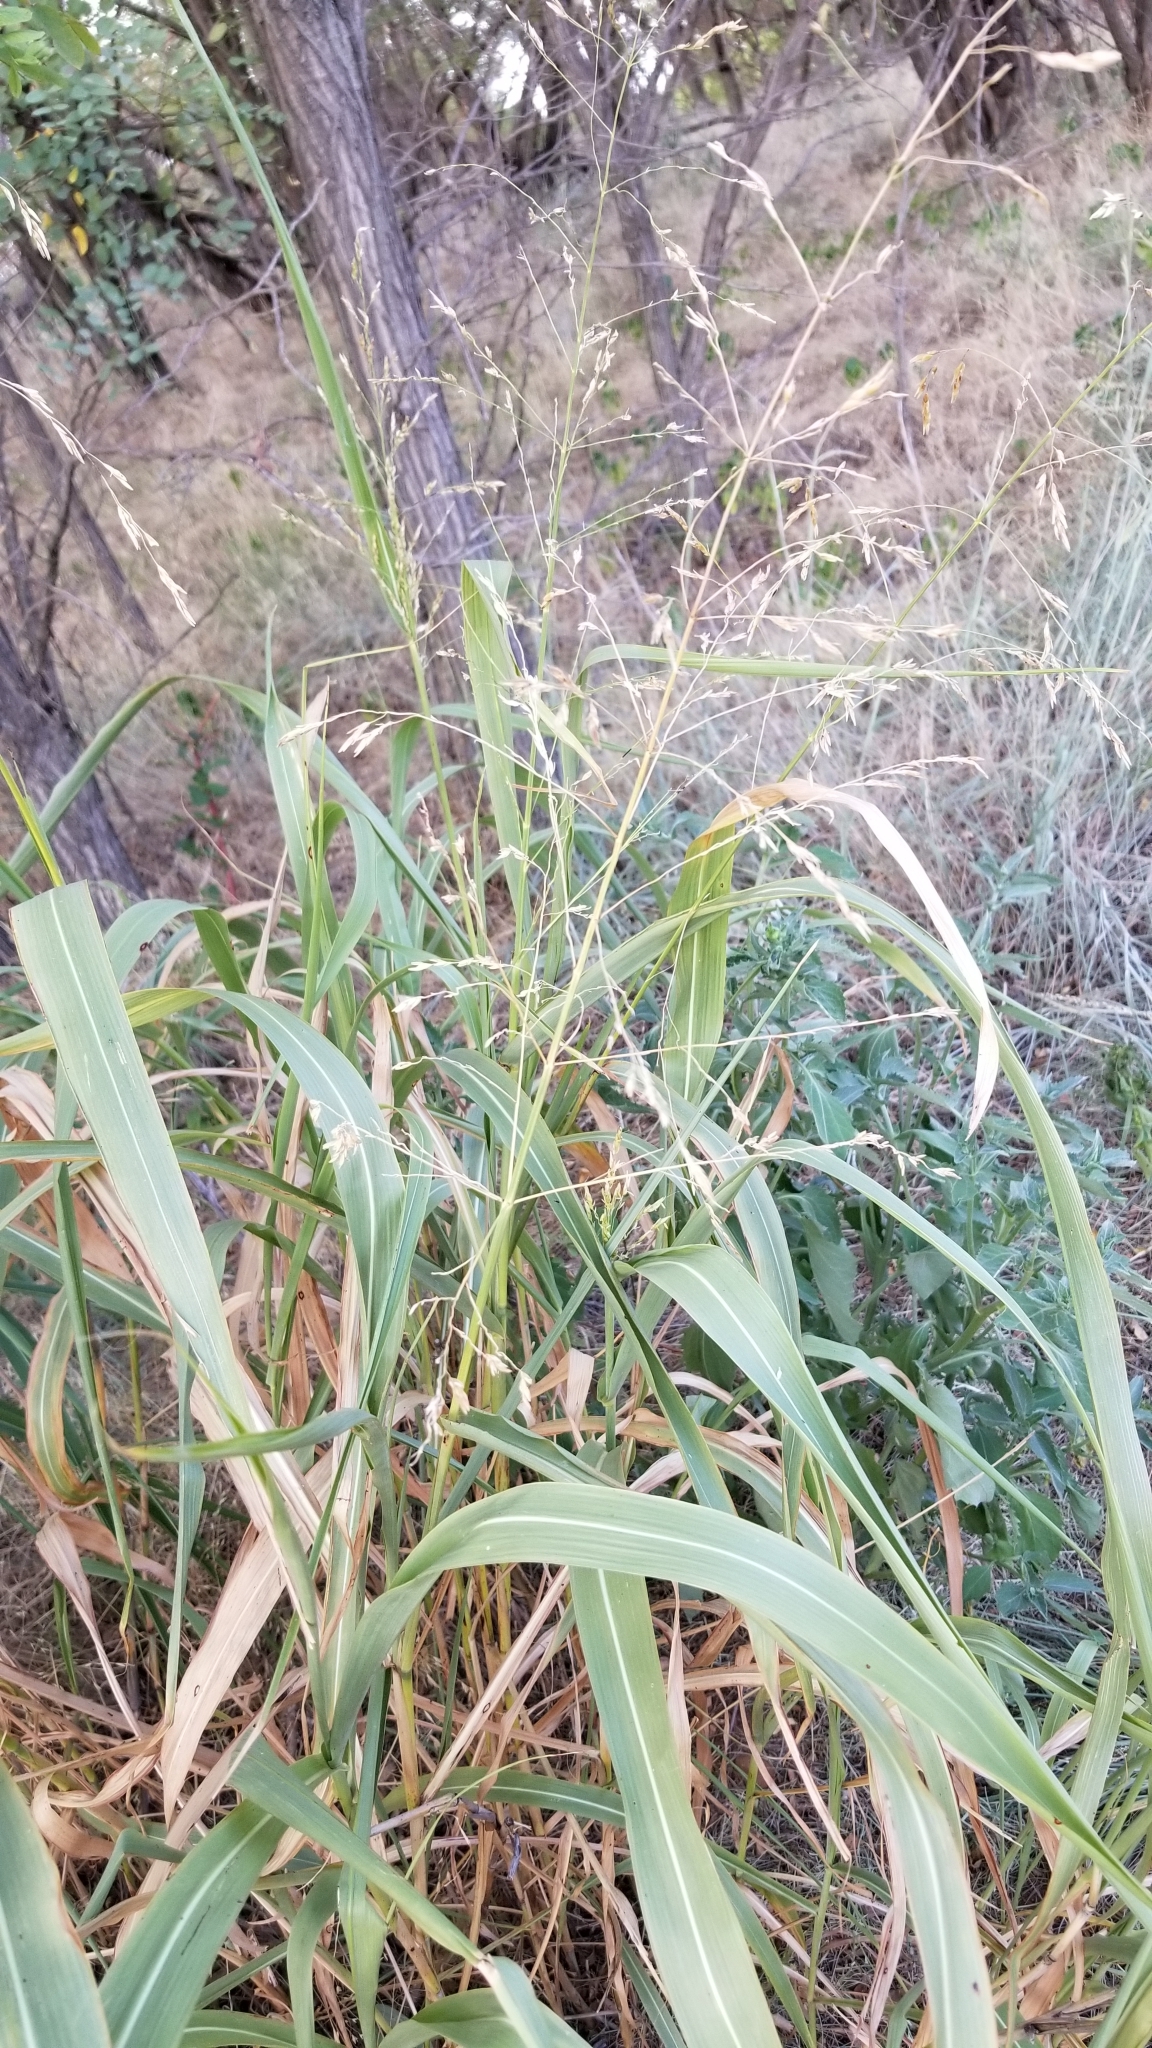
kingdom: Plantae
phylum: Tracheophyta
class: Liliopsida
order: Poales
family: Poaceae
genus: Sorghum
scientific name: Sorghum halepense
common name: Johnson-grass
